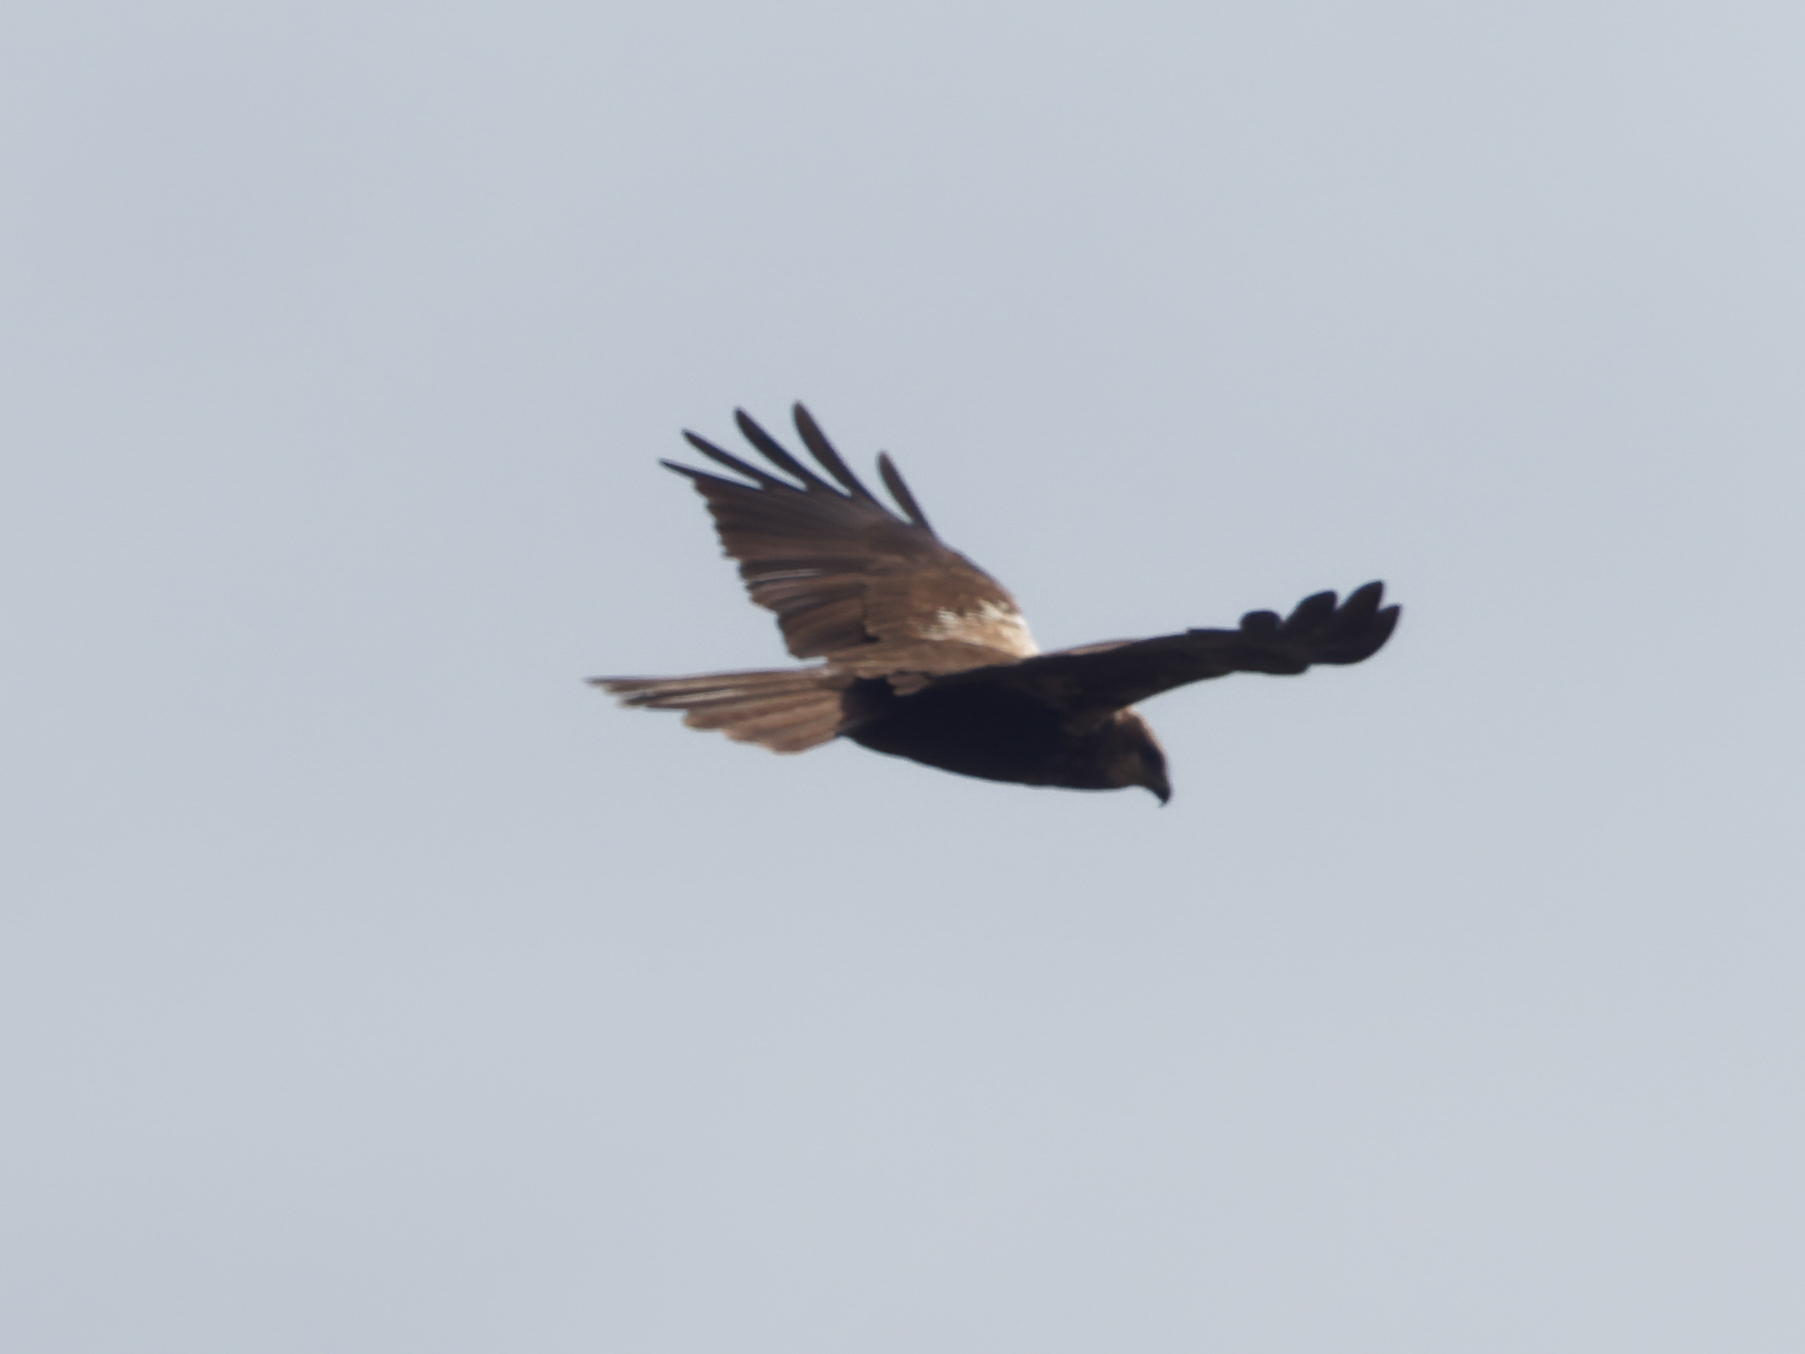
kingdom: Animalia
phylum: Chordata
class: Aves
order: Accipitriformes
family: Accipitridae
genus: Circus
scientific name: Circus aeruginosus
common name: Western marsh harrier
